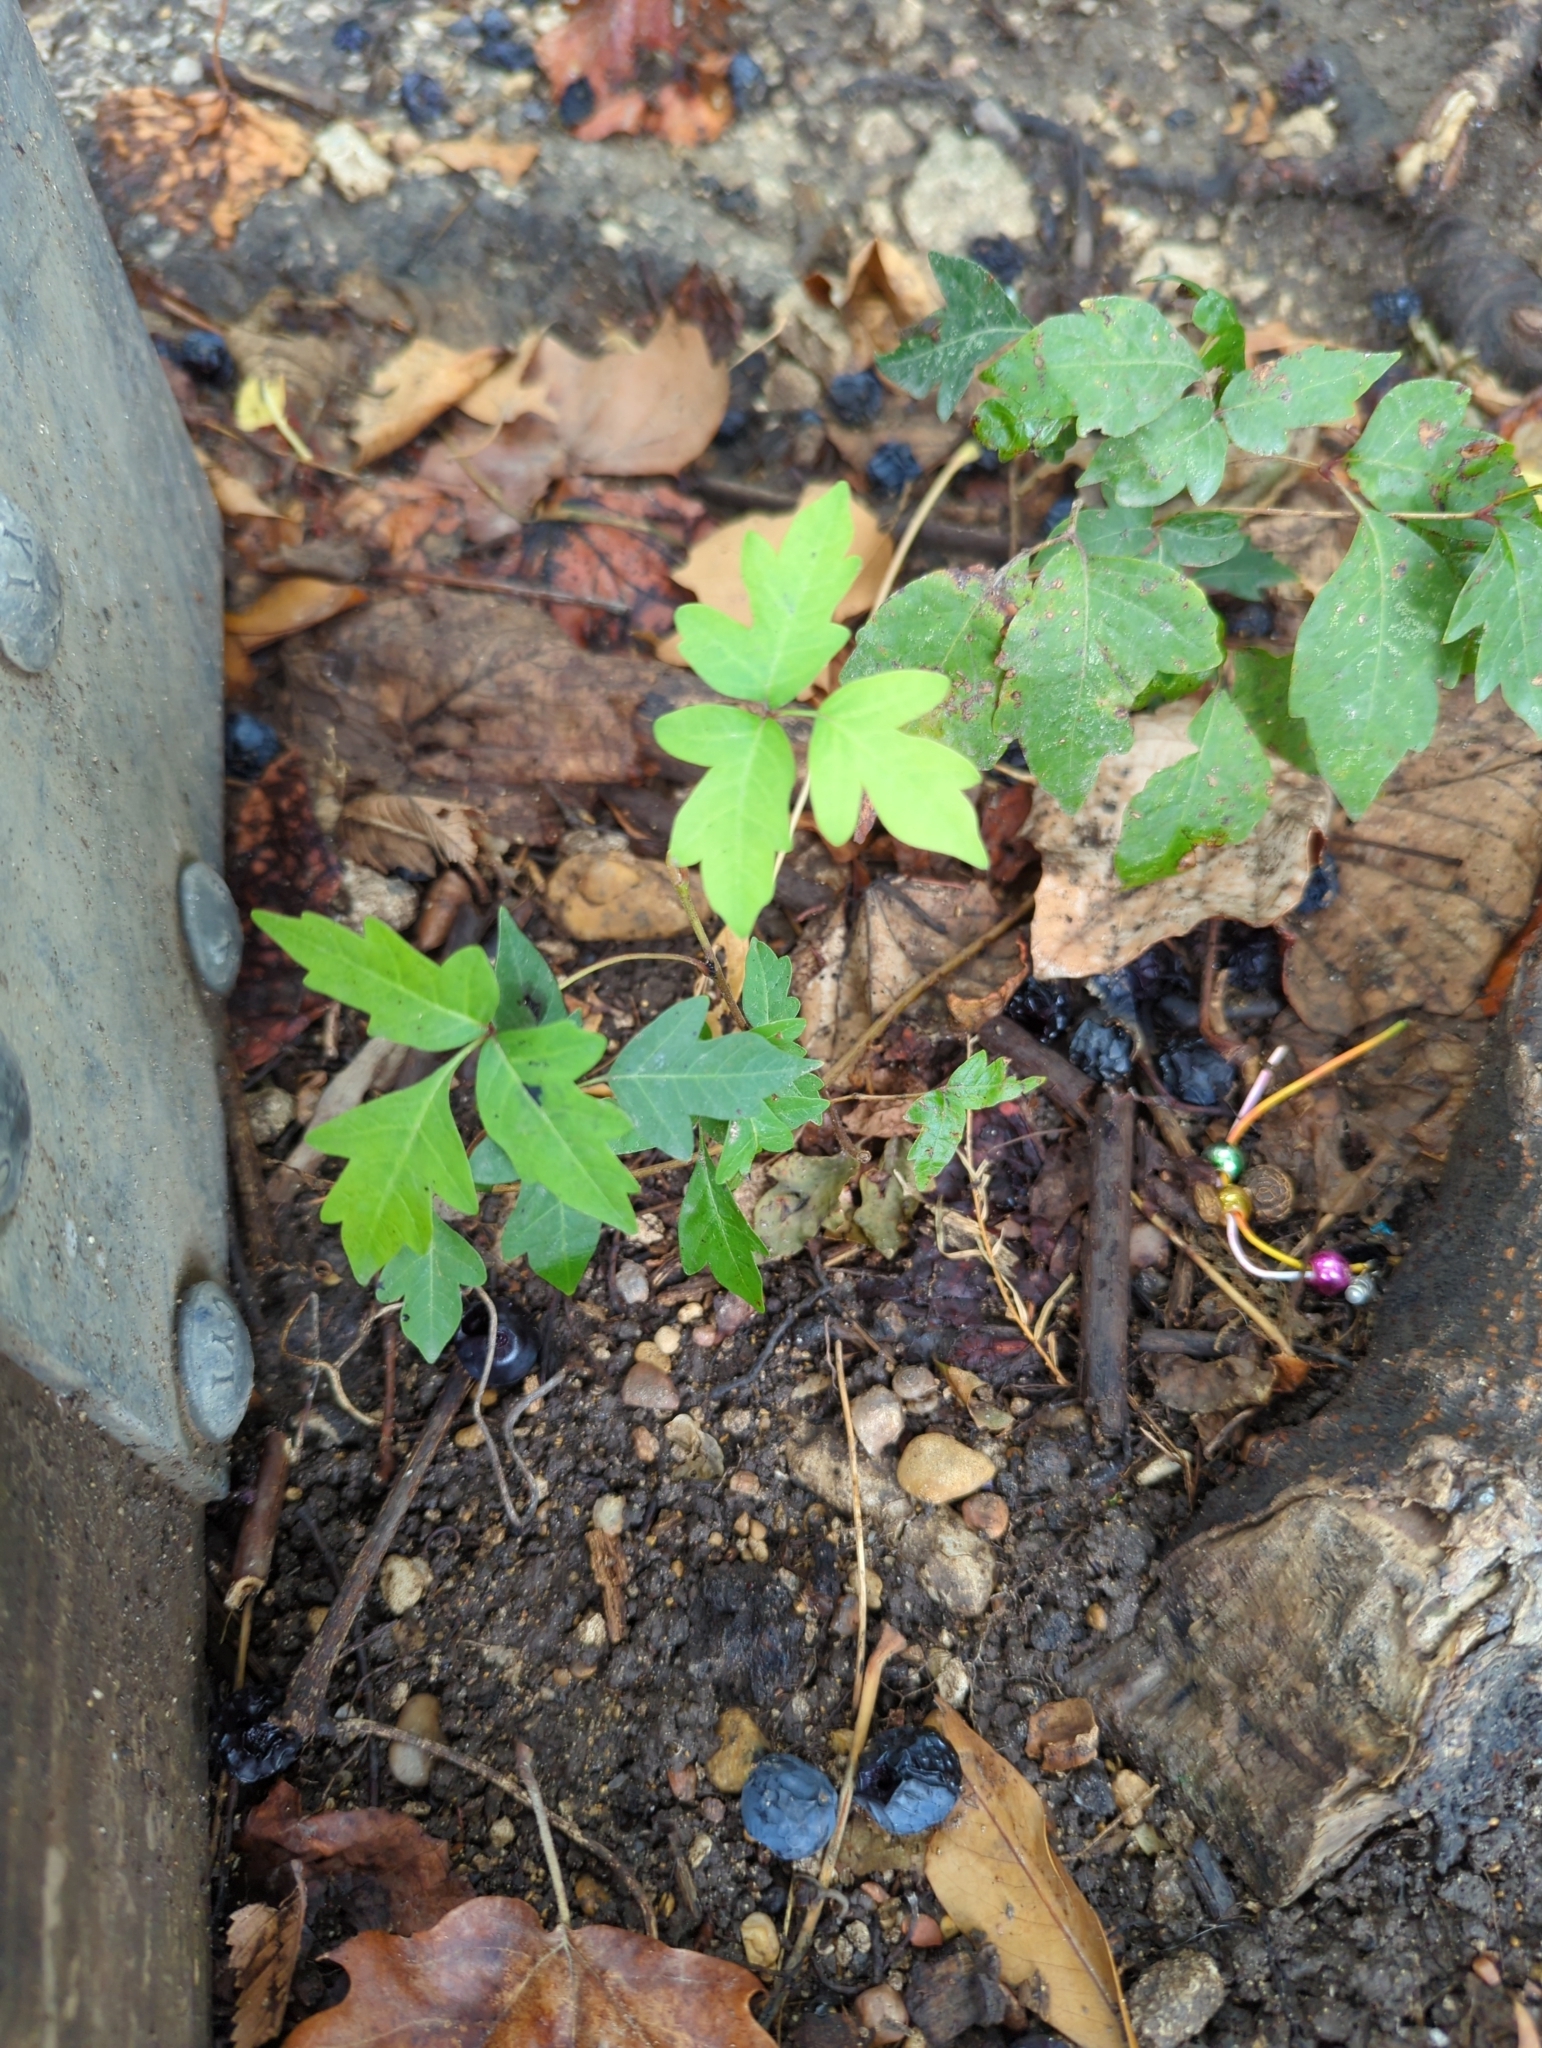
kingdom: Plantae
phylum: Tracheophyta
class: Magnoliopsida
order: Sapindales
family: Anacardiaceae
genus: Toxicodendron
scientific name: Toxicodendron radicans
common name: Poison ivy
